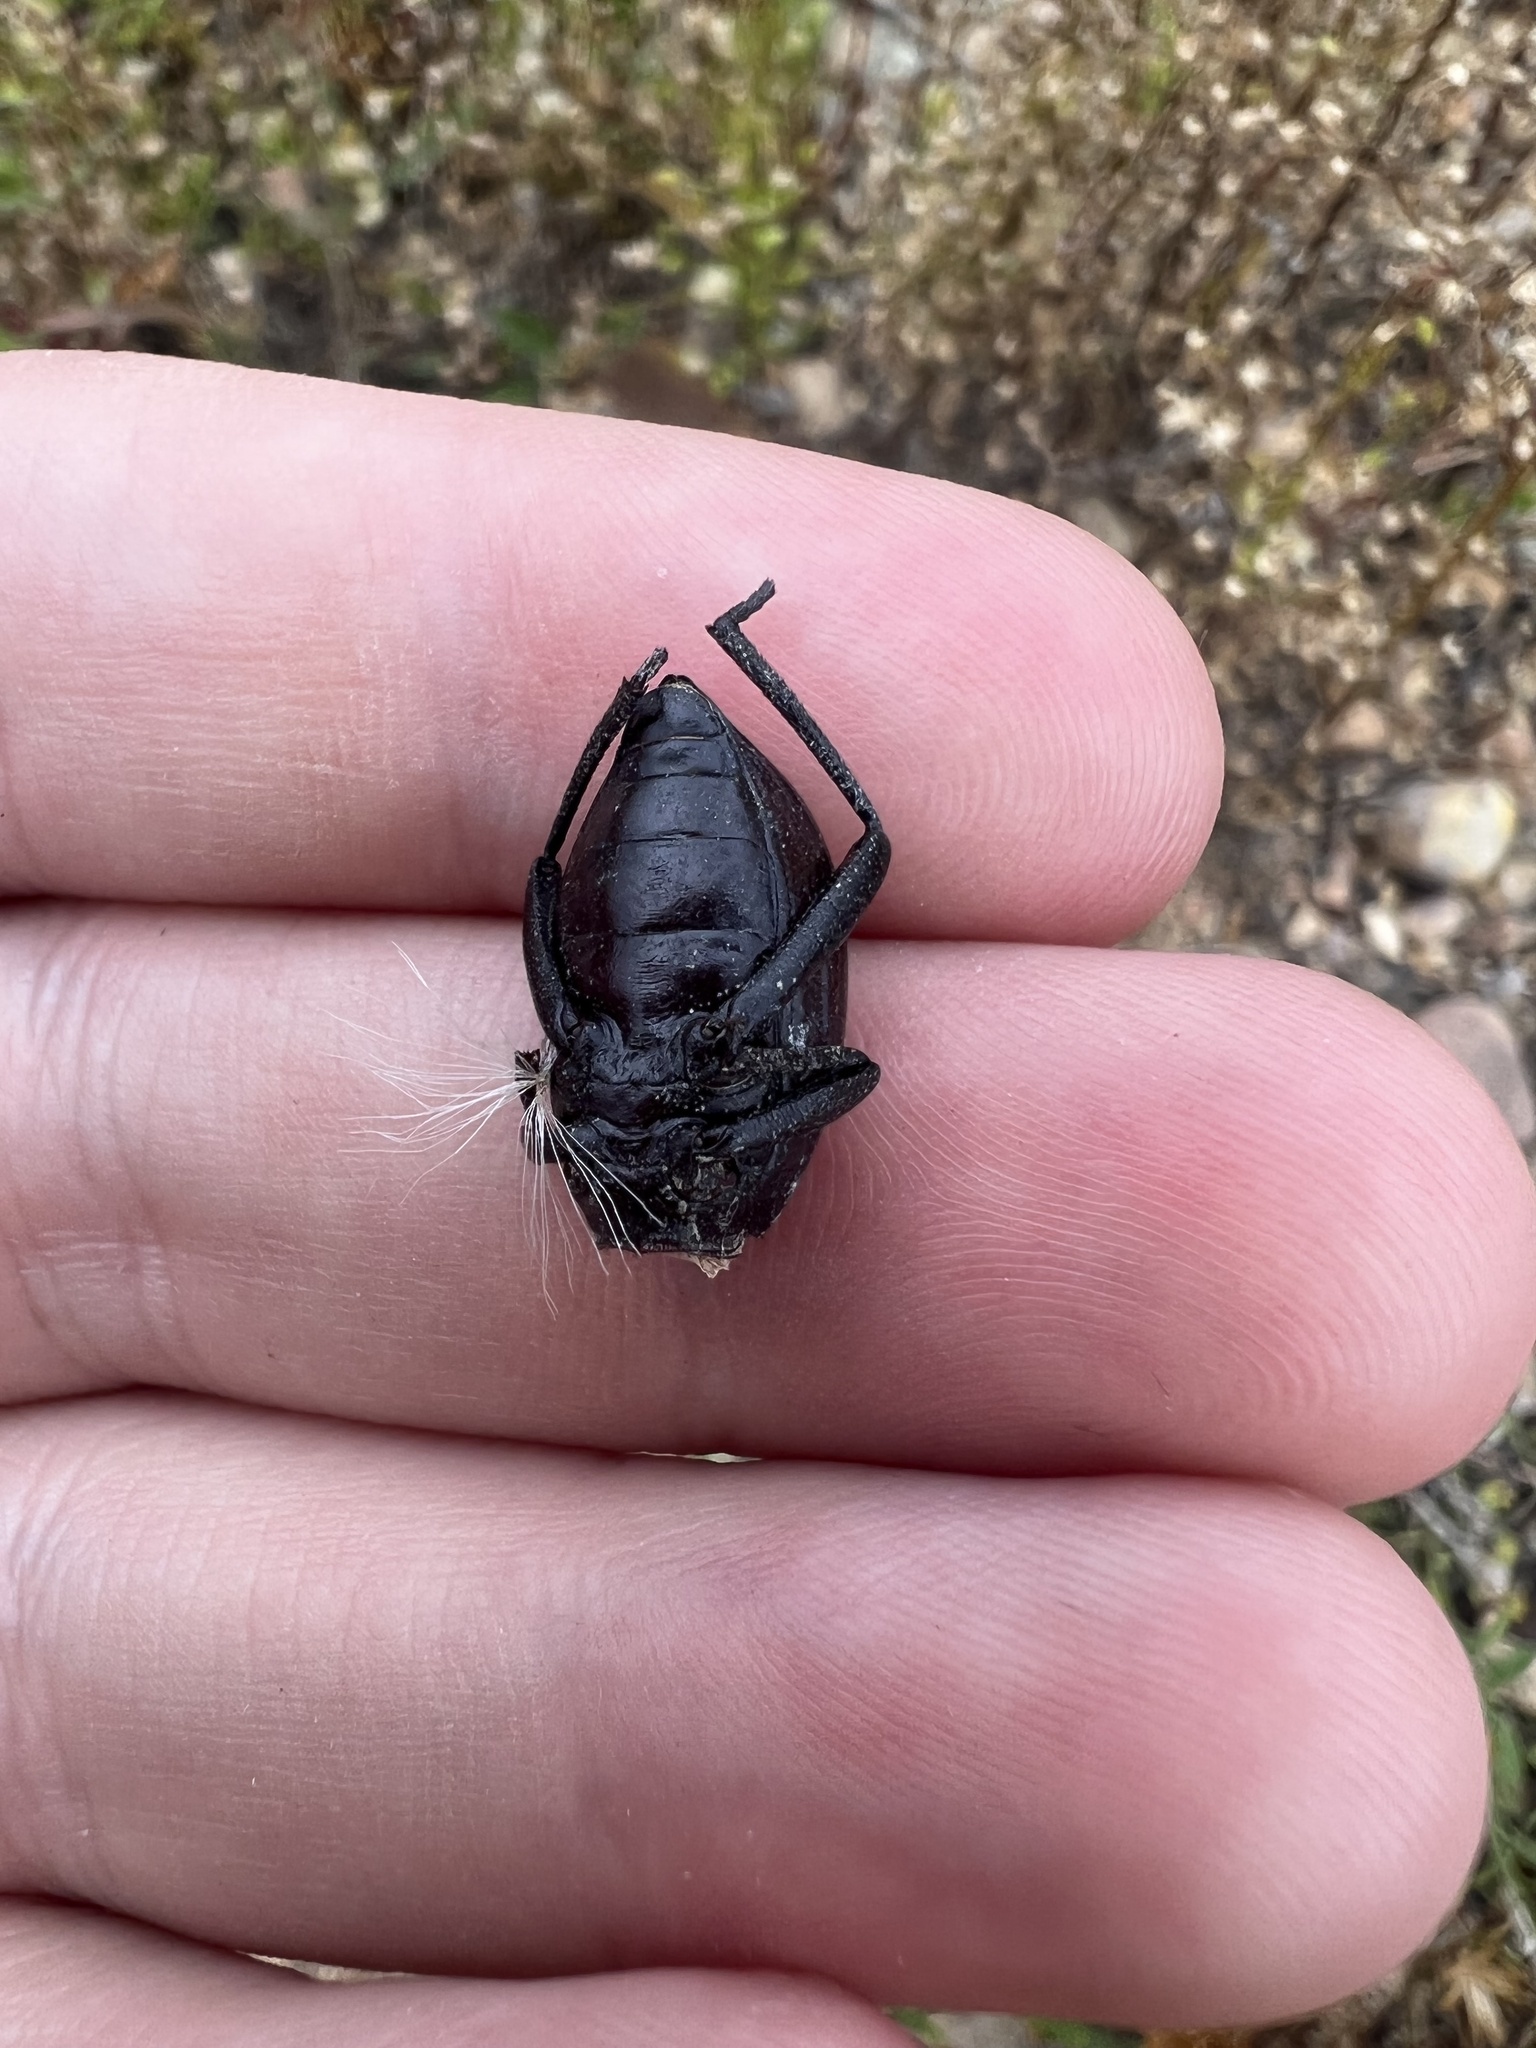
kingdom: Animalia
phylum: Arthropoda
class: Insecta
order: Coleoptera
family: Tenebrionidae
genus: Eleodes
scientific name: Eleodes hispilabris
